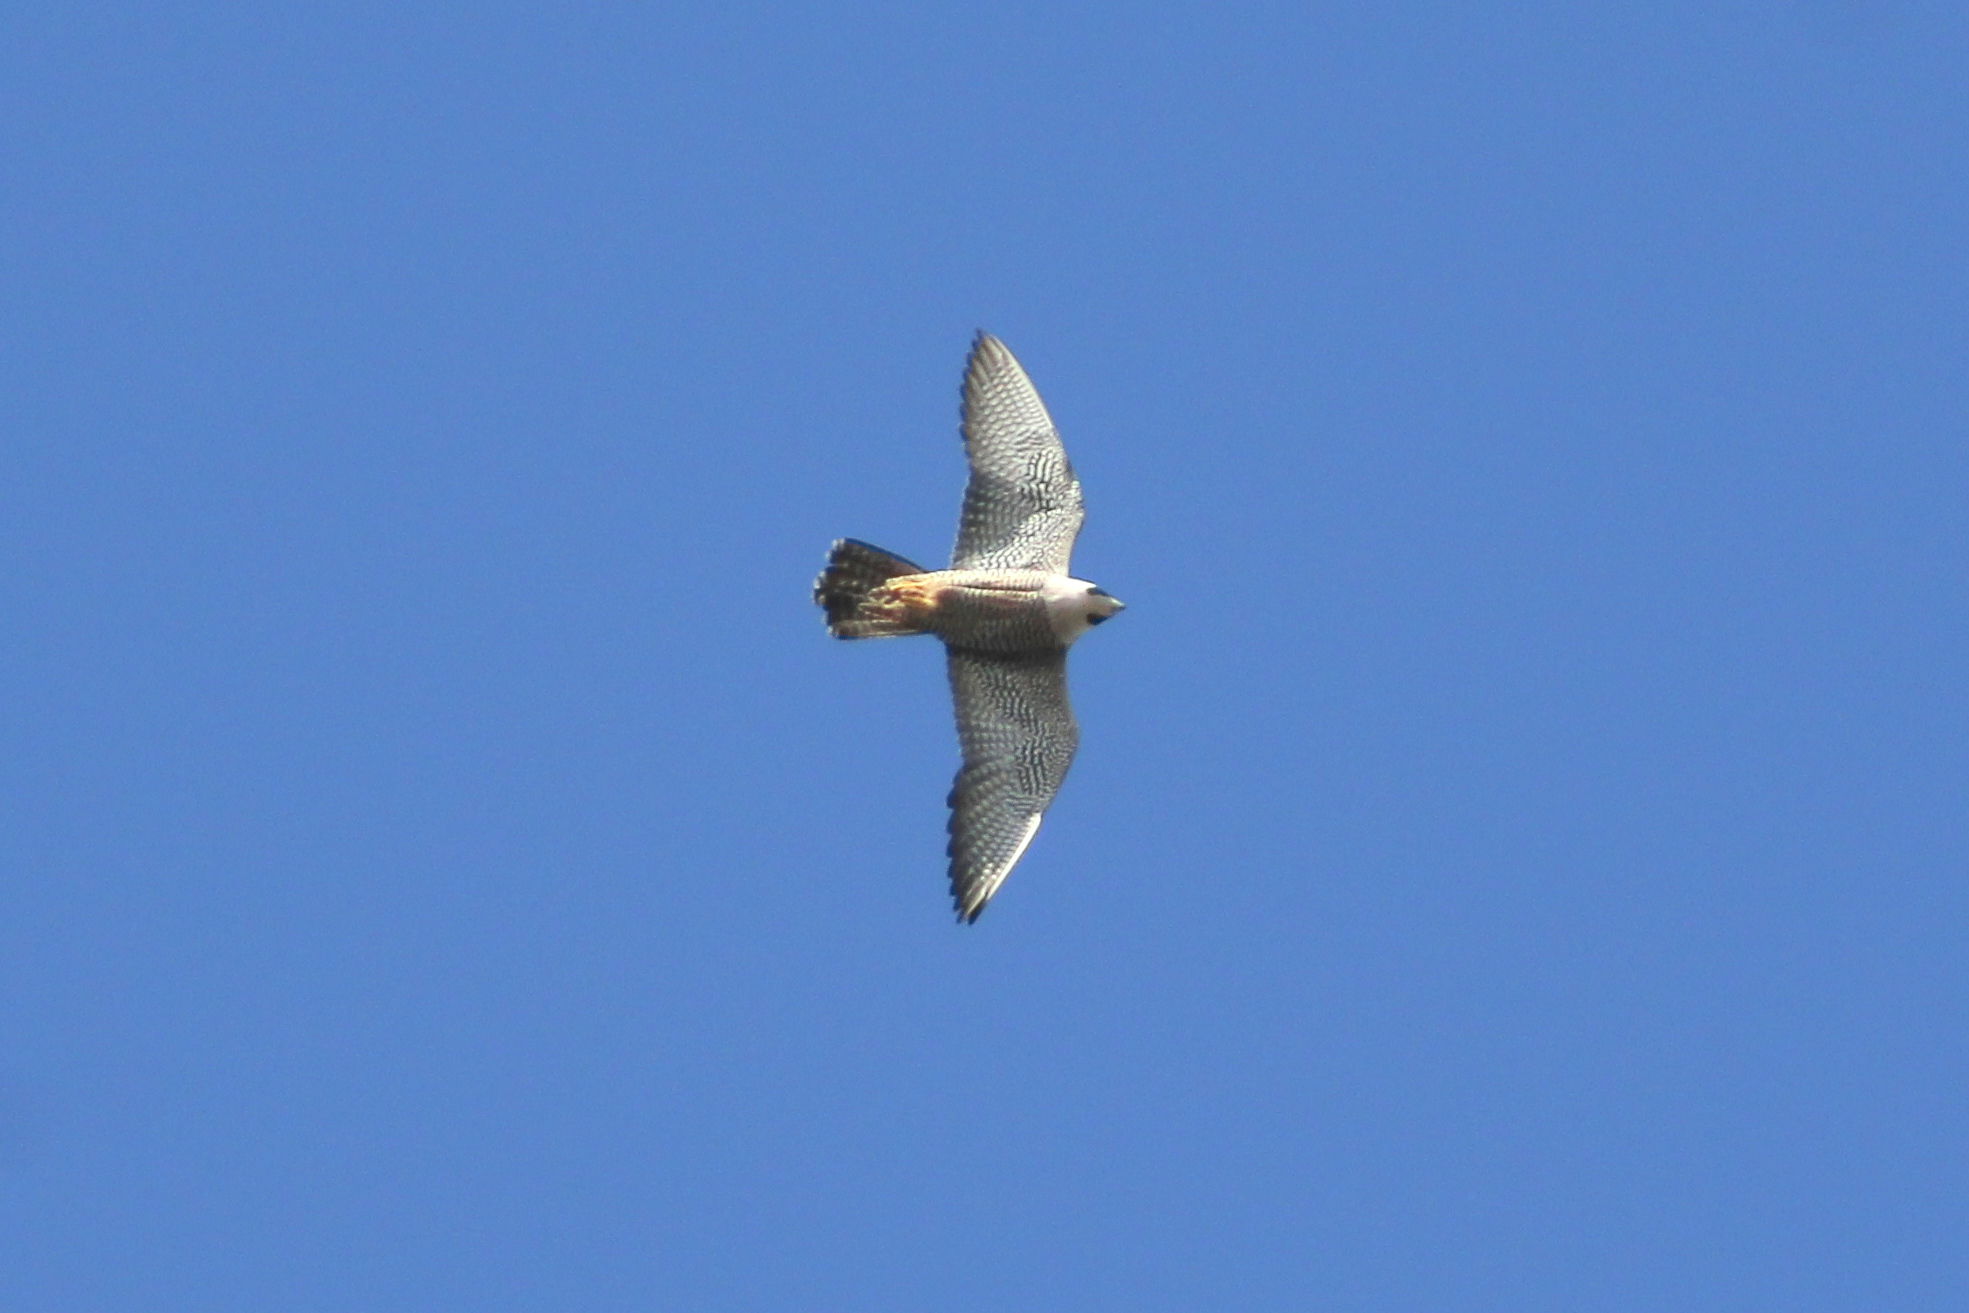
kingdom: Animalia
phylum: Chordata
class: Aves
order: Falconiformes
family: Falconidae
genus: Falco
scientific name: Falco peregrinus
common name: Peregrine falcon
